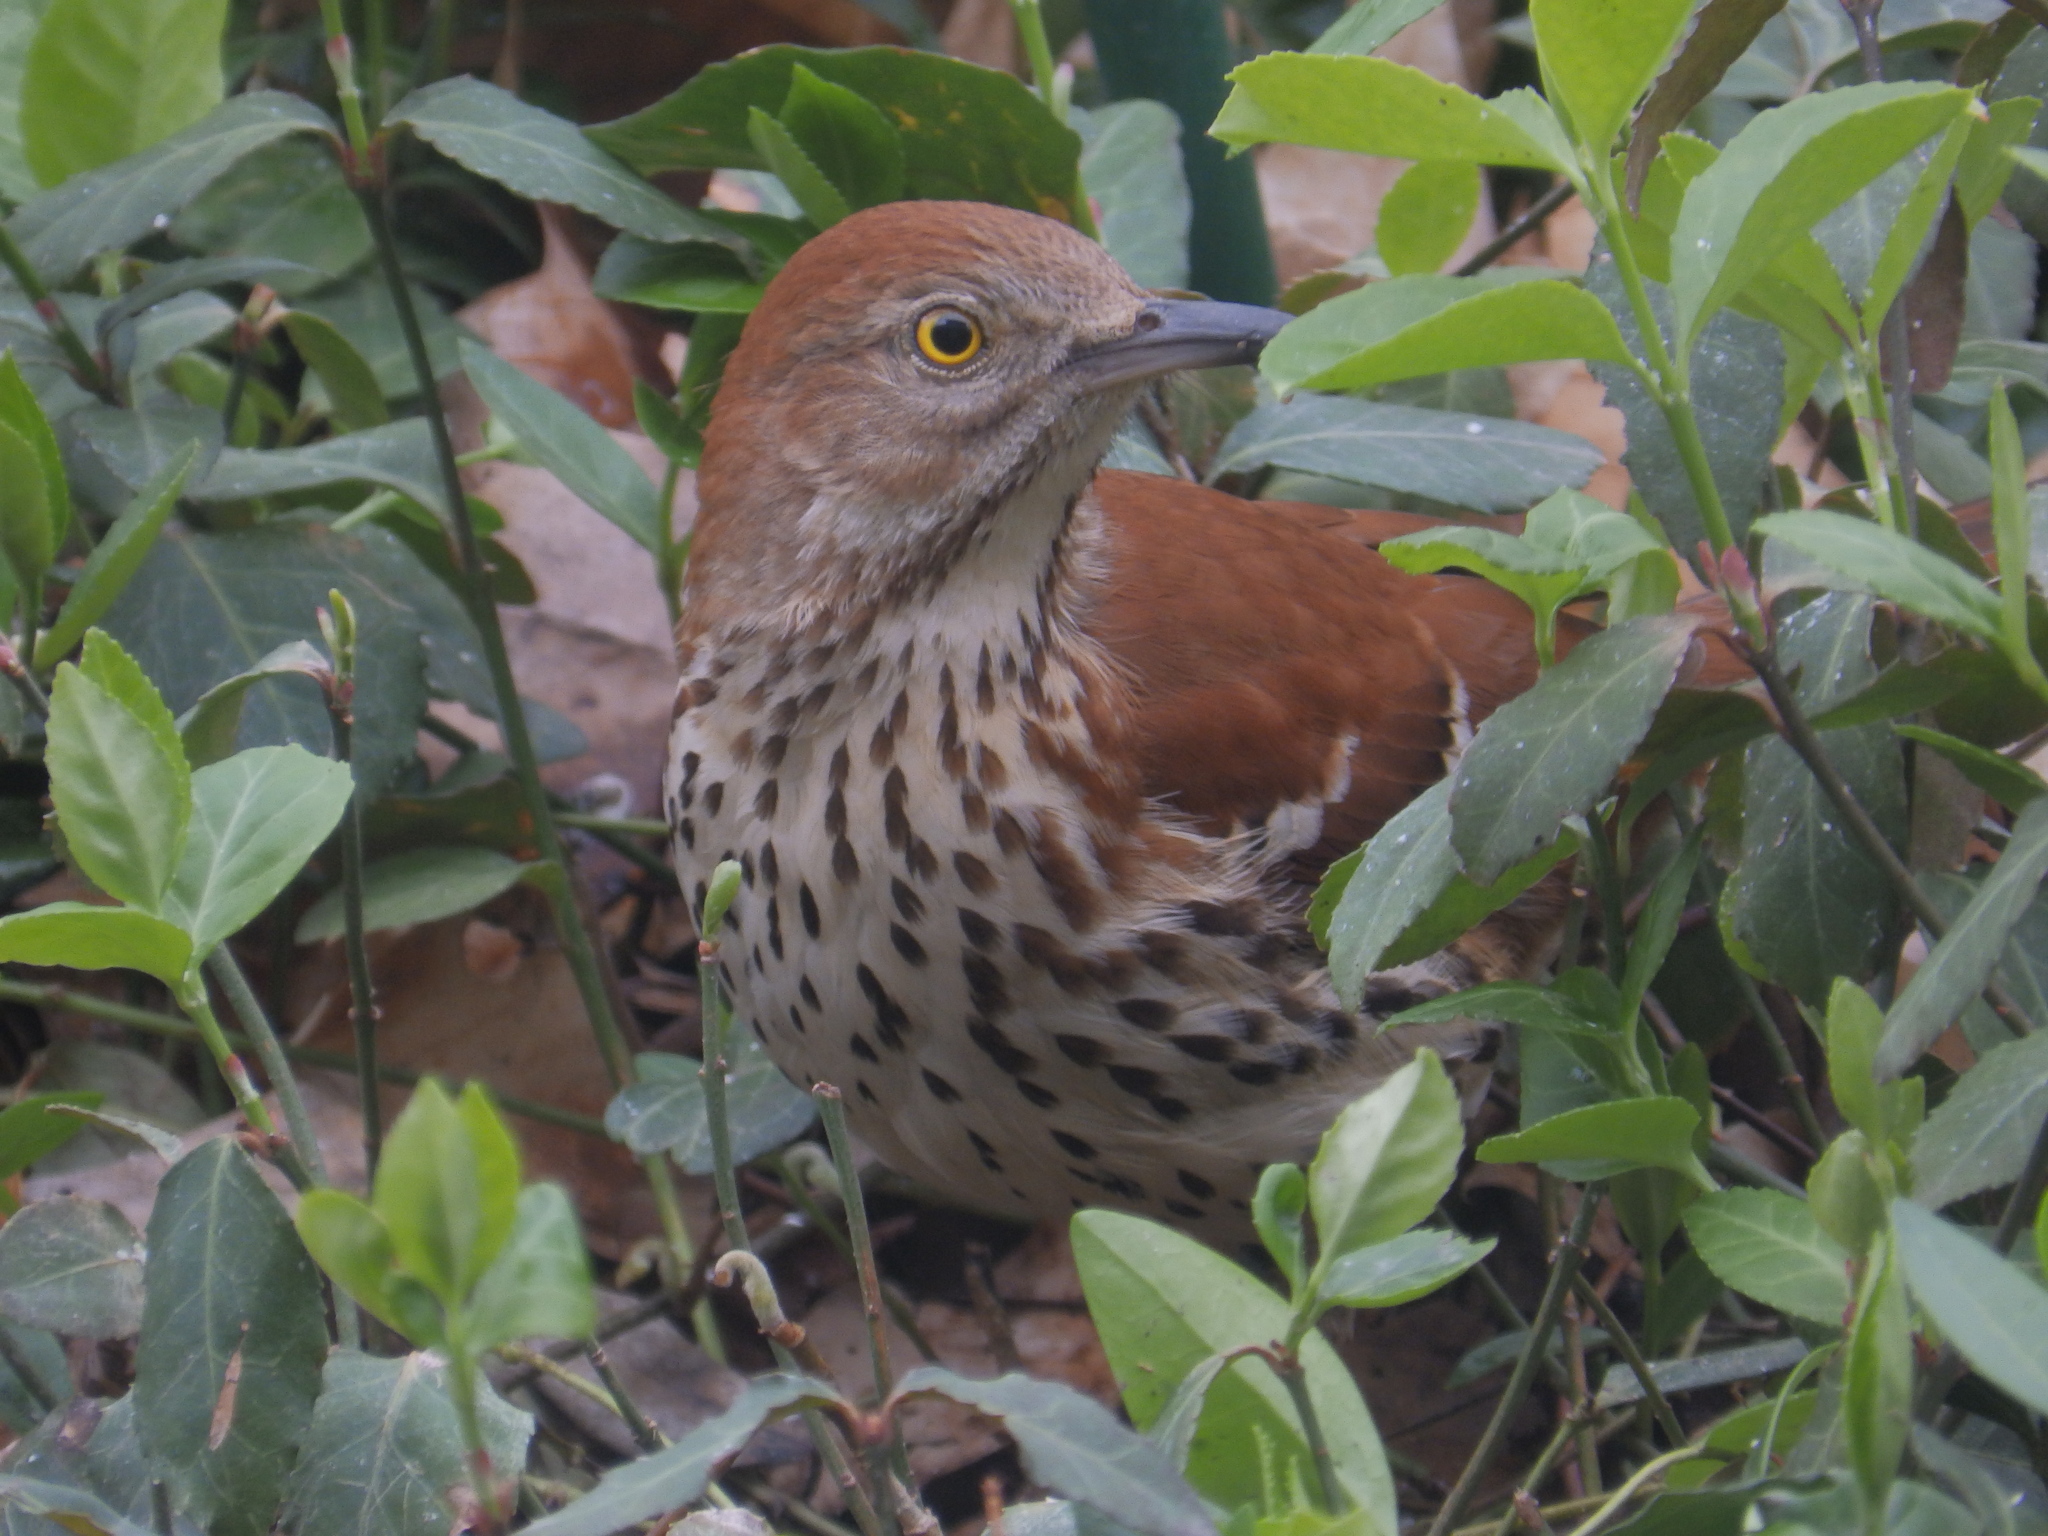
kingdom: Animalia
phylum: Chordata
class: Aves
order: Passeriformes
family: Mimidae
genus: Toxostoma
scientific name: Toxostoma rufum
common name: Brown thrasher
